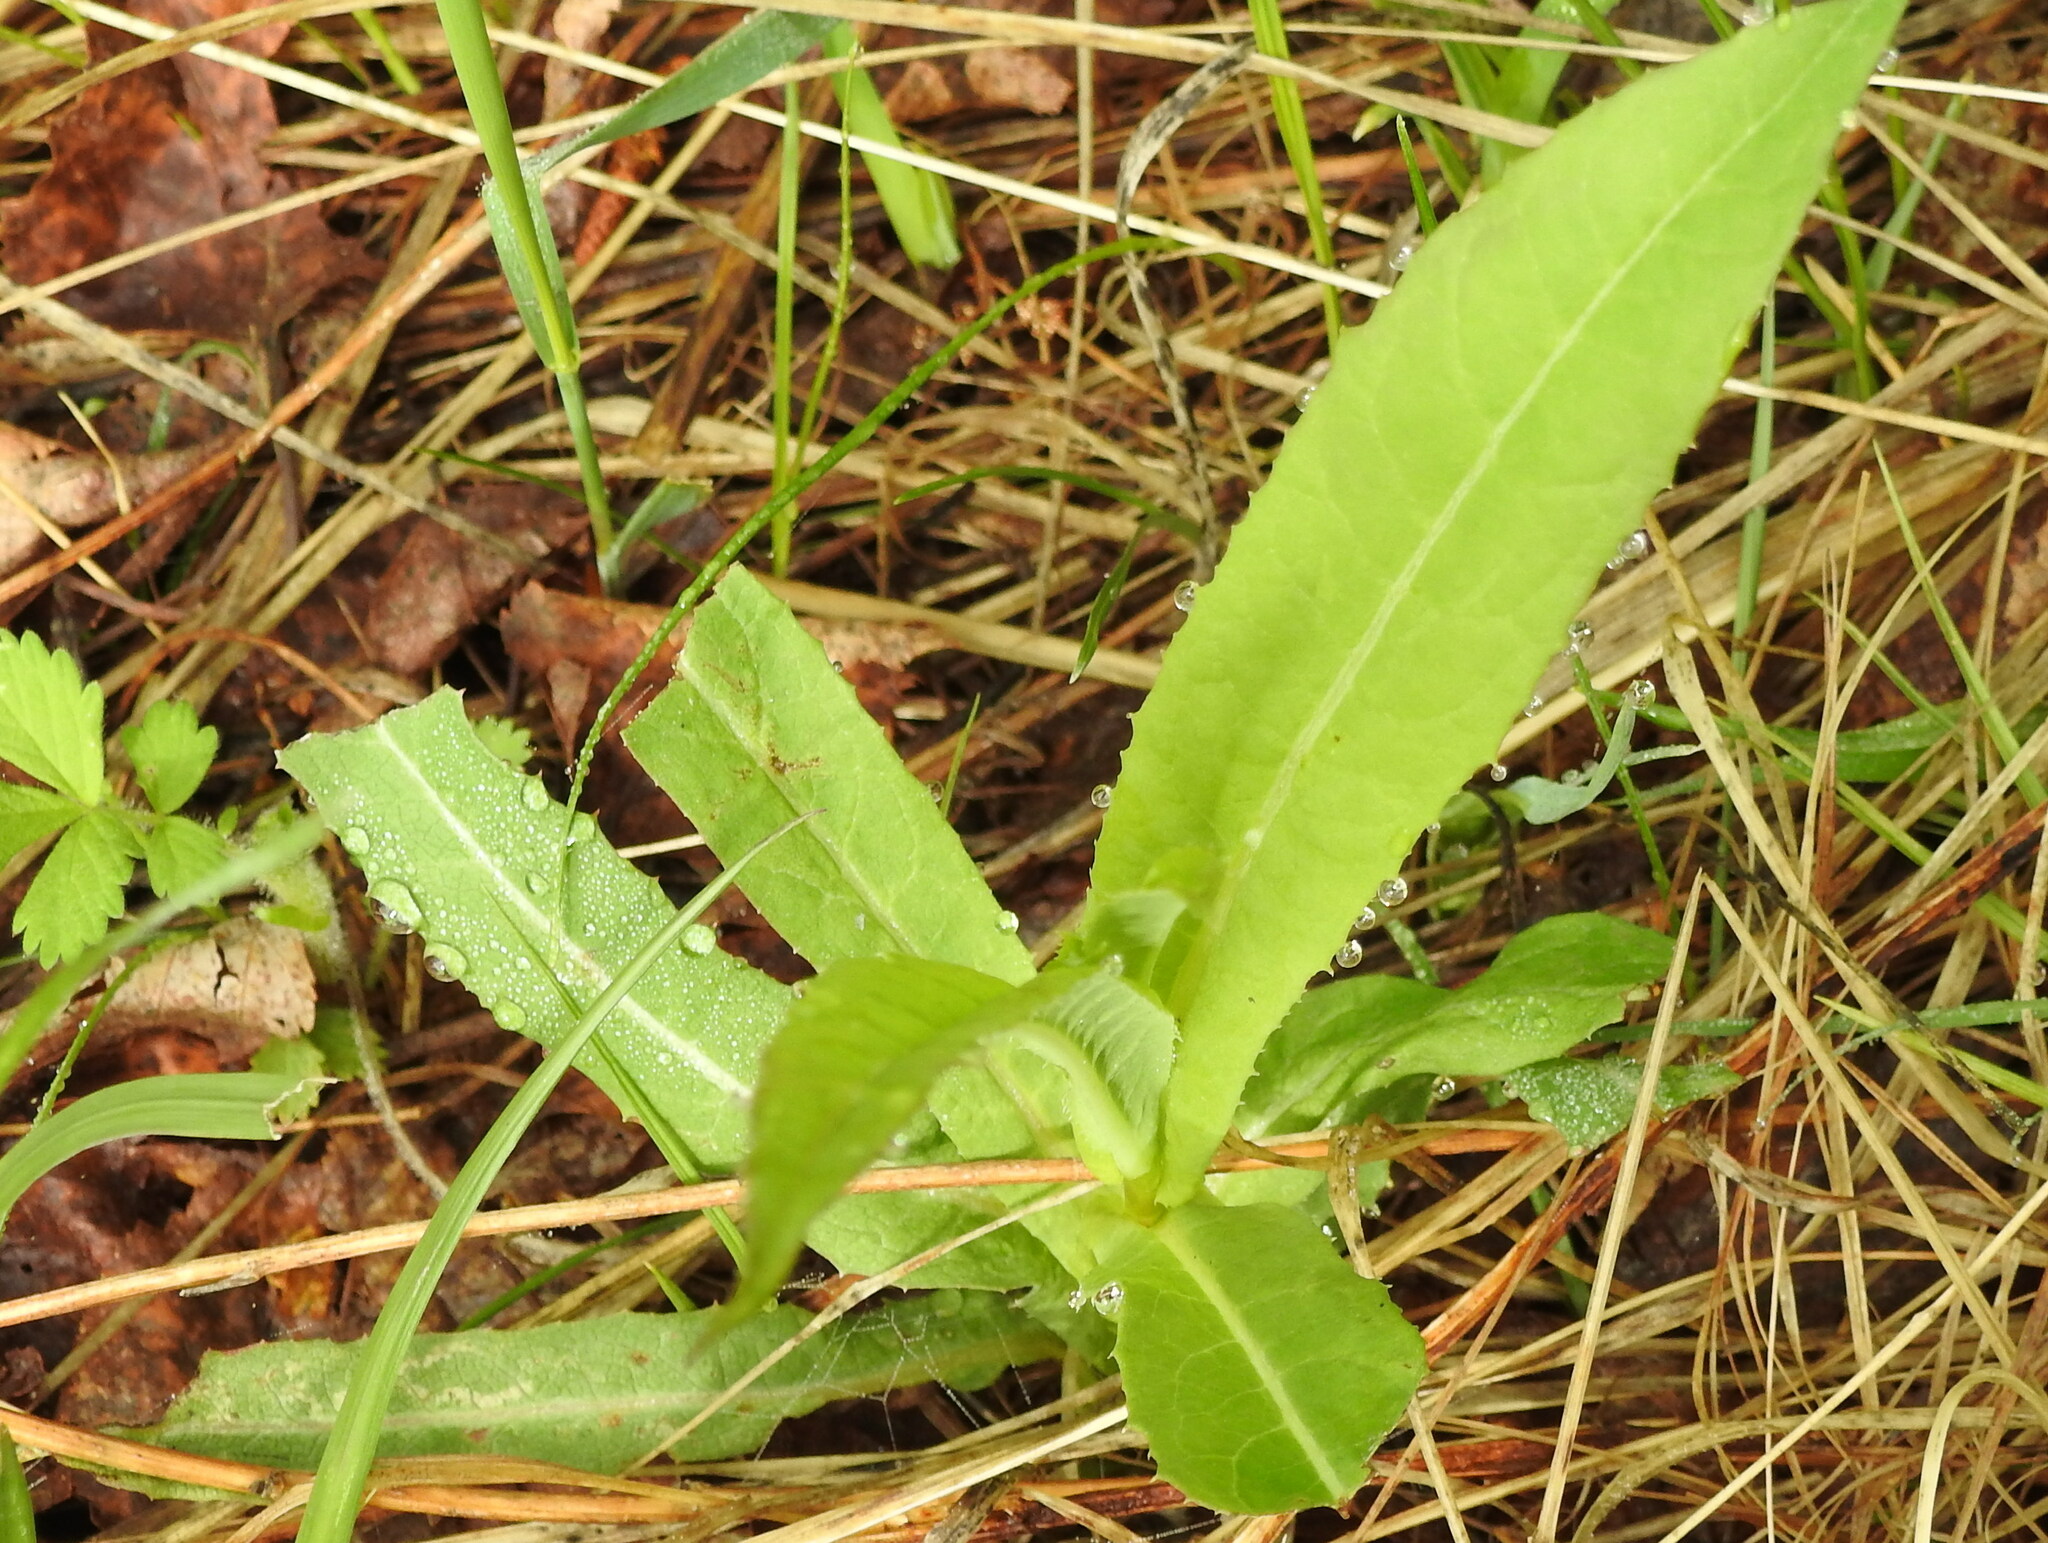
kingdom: Plantae
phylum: Tracheophyta
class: Magnoliopsida
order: Asterales
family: Asteraceae
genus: Sonchus
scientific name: Sonchus arvensis
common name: Perennial sow-thistle
